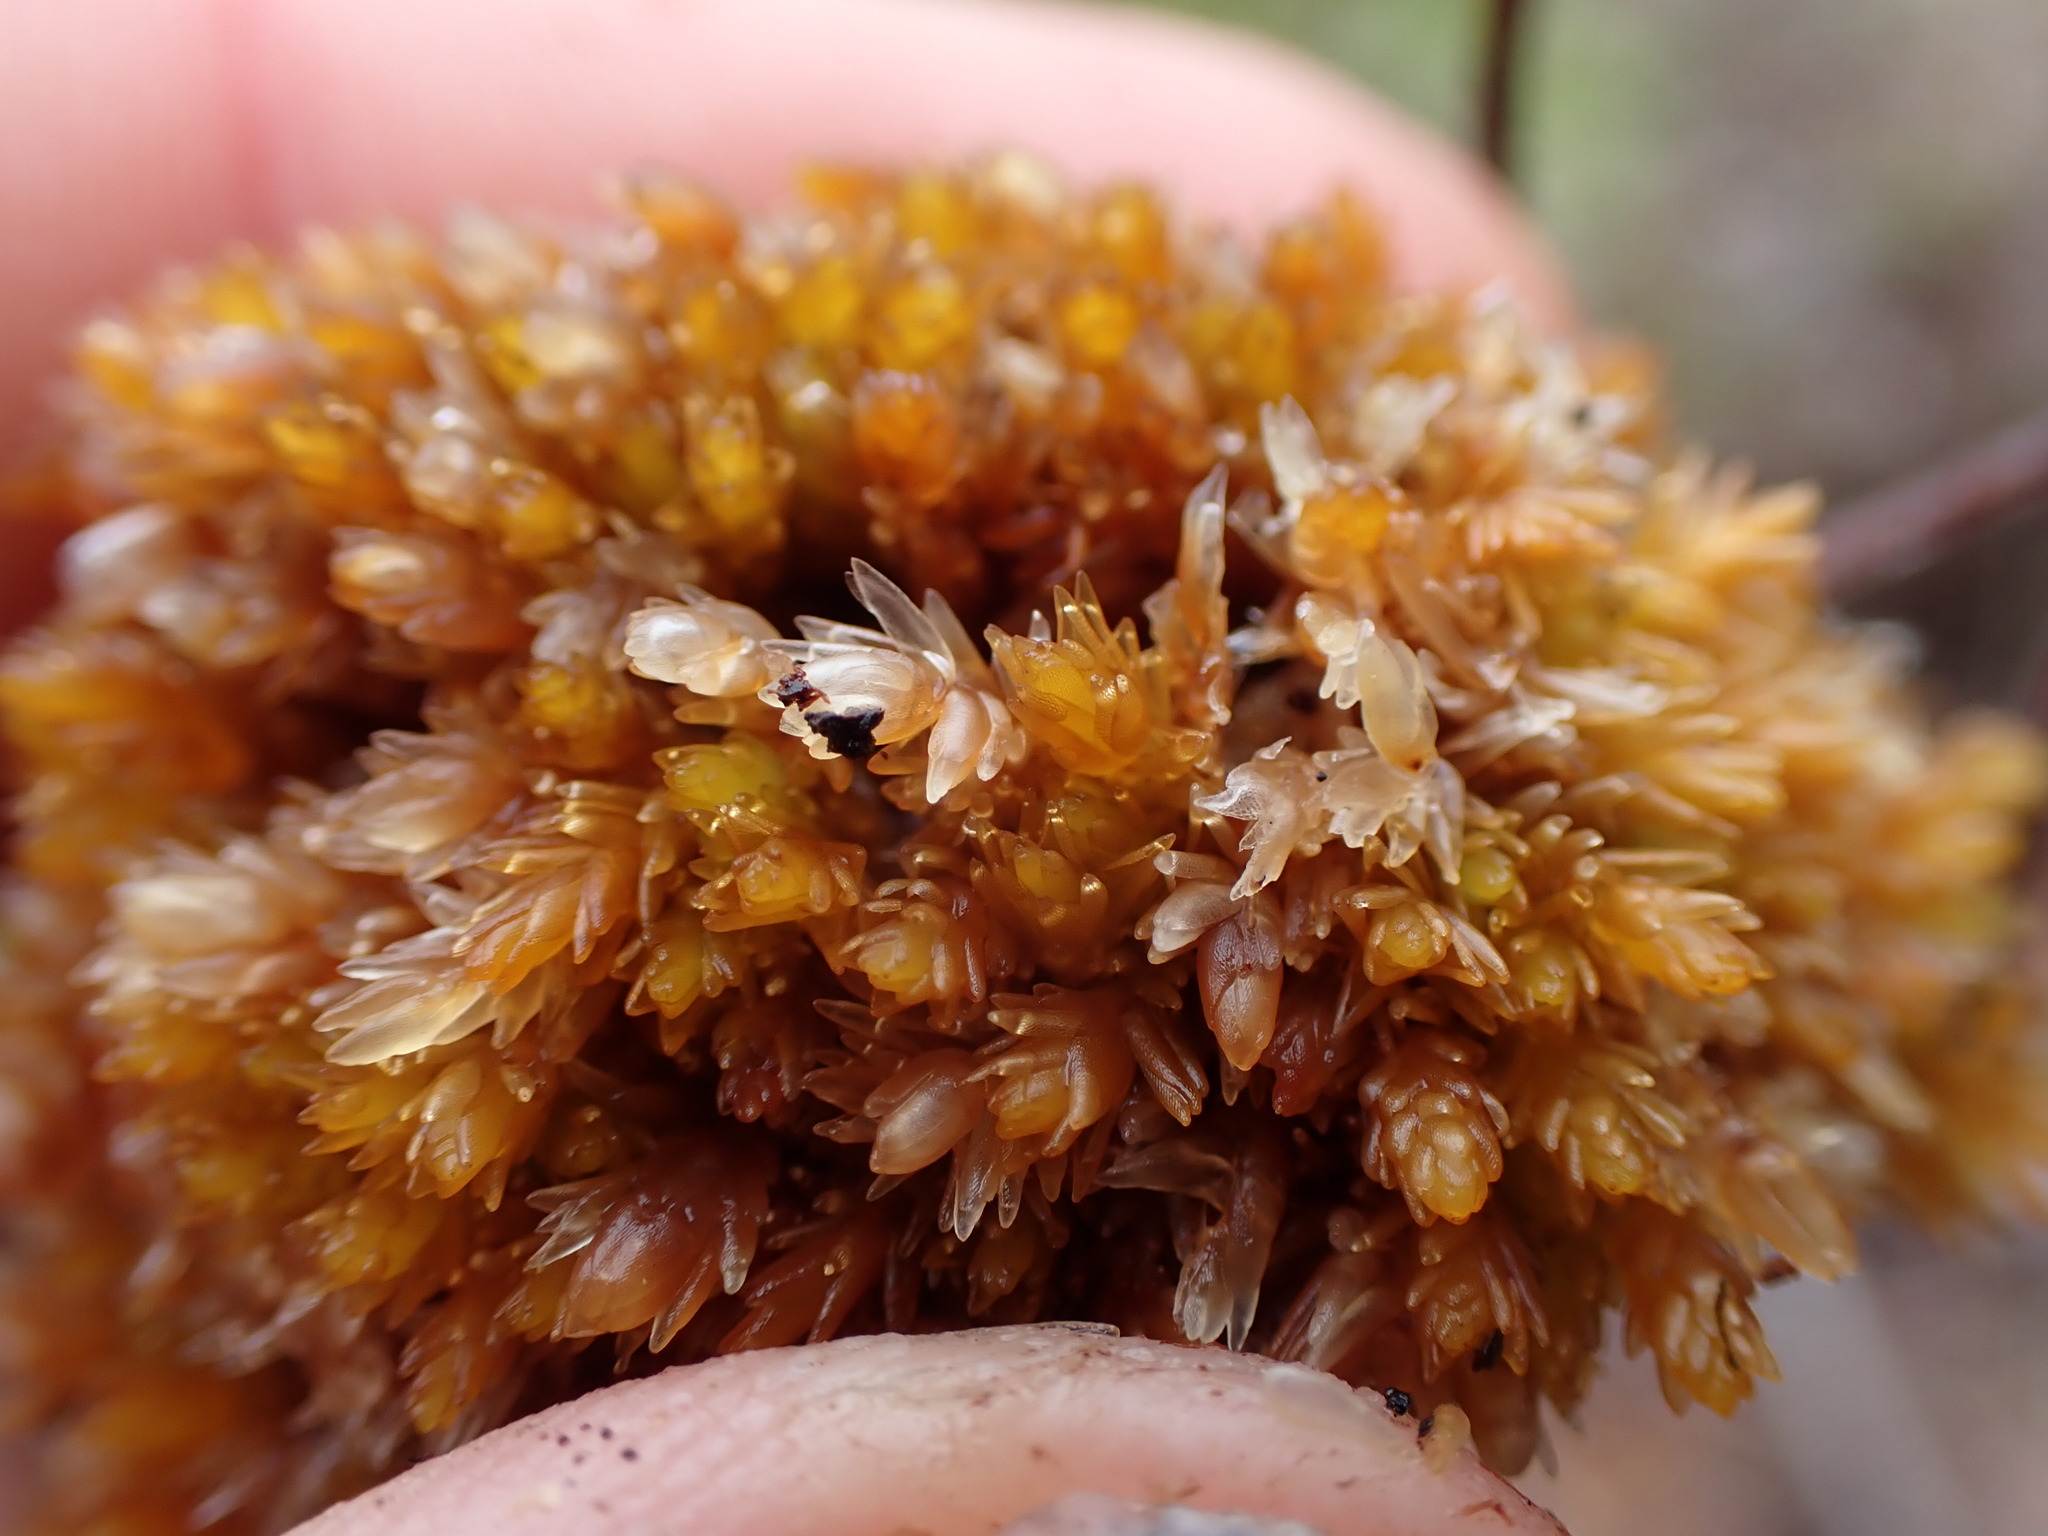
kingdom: Plantae
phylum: Bryophyta
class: Sphagnopsida
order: Sphagnales
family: Sphagnaceae
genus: Sphagnum
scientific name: Sphagnum compactum
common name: Compact peat moss
